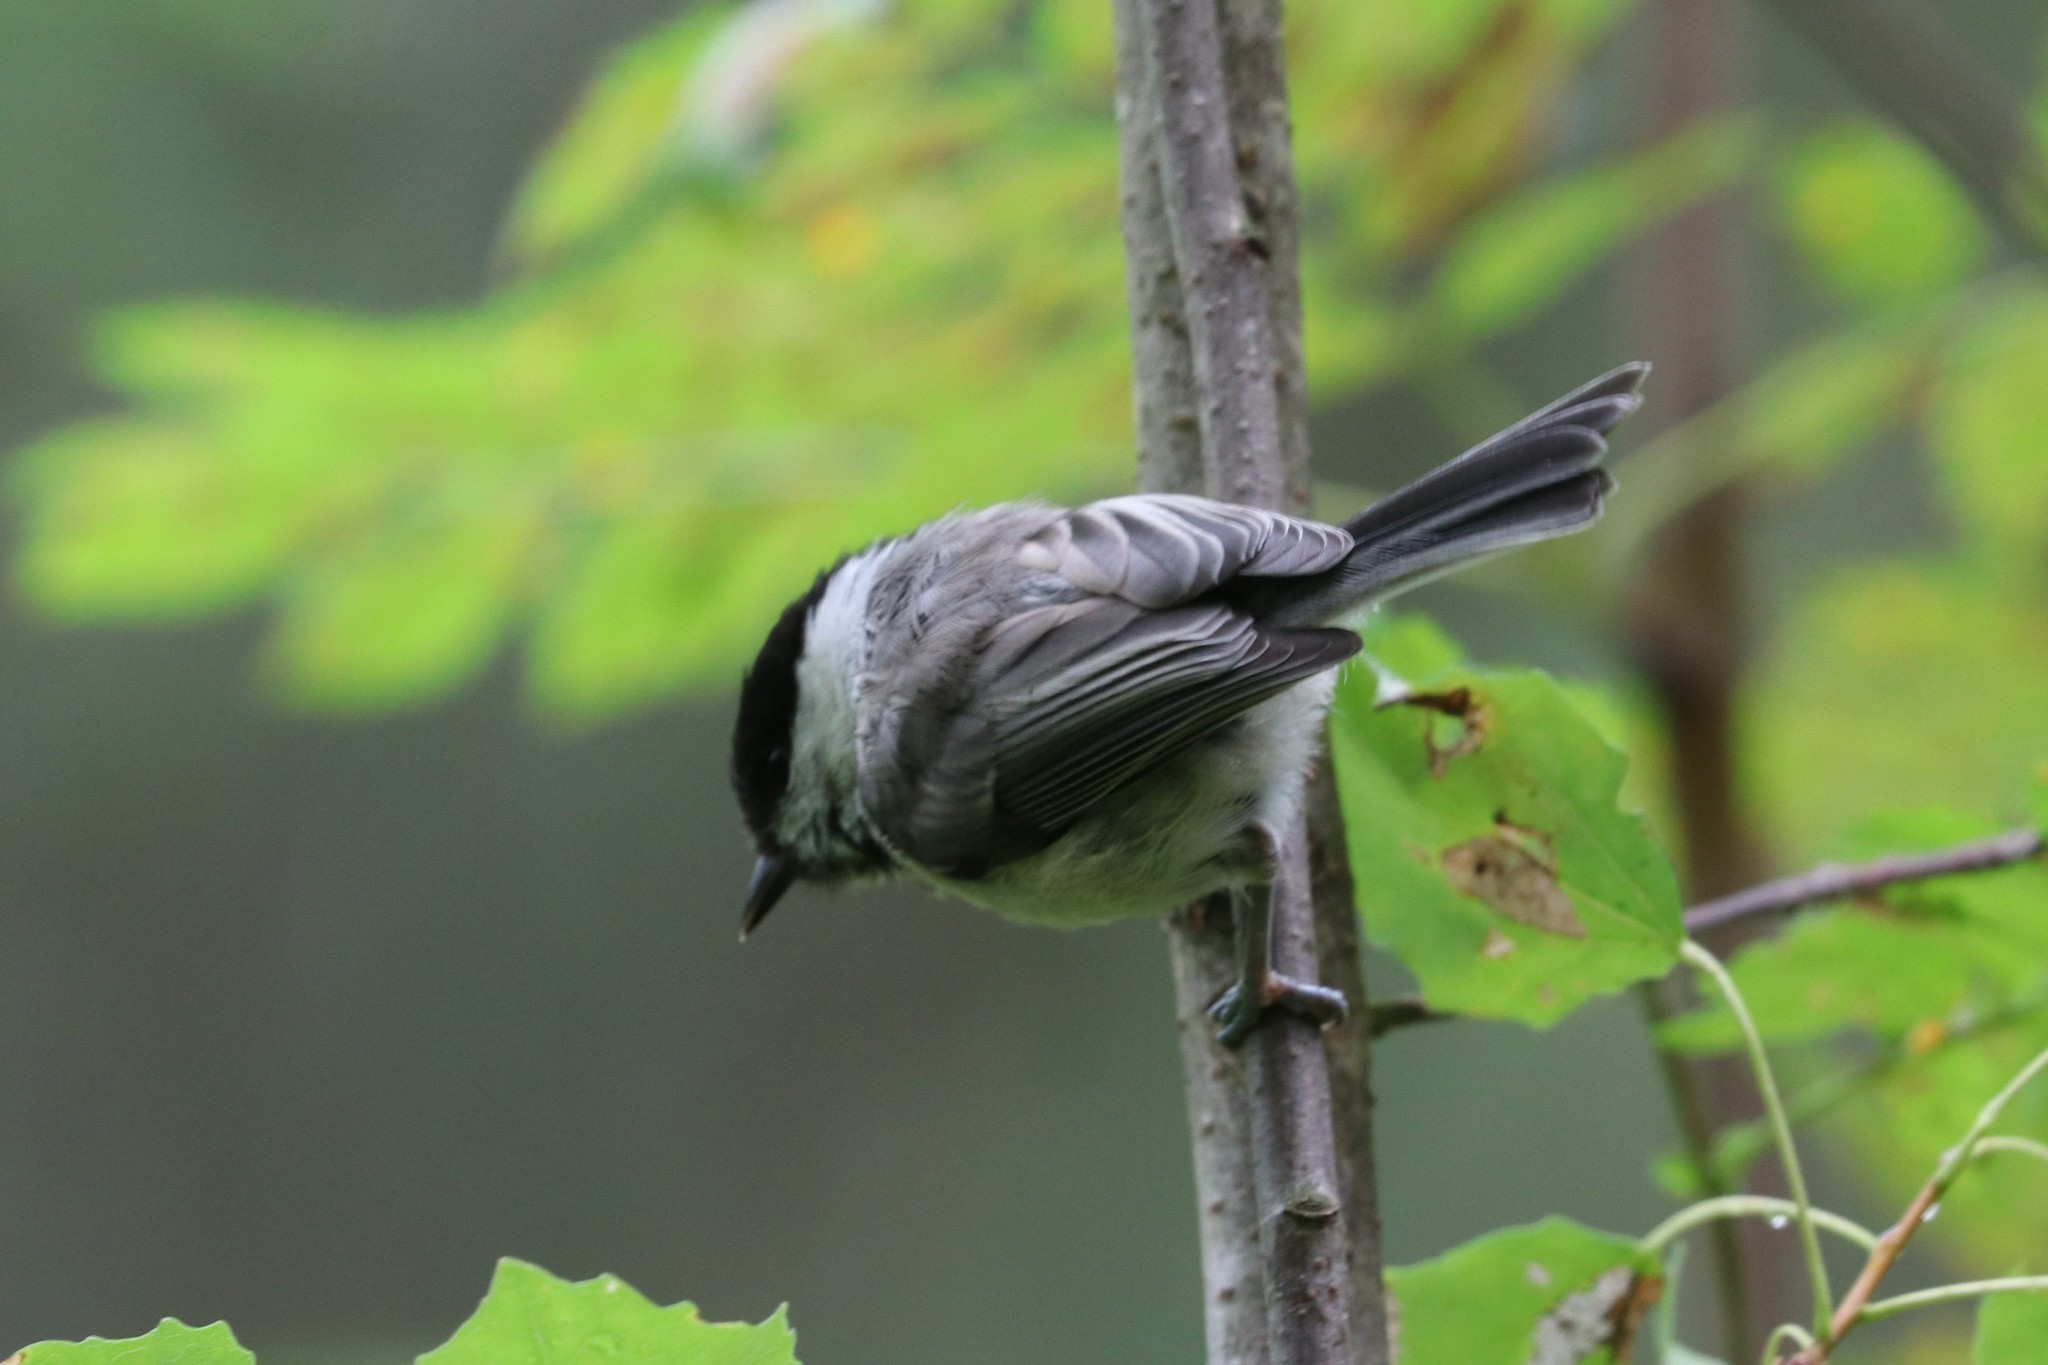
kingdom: Animalia
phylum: Chordata
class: Aves
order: Passeriformes
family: Paridae
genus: Poecile
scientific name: Poecile montanus
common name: Willow tit
